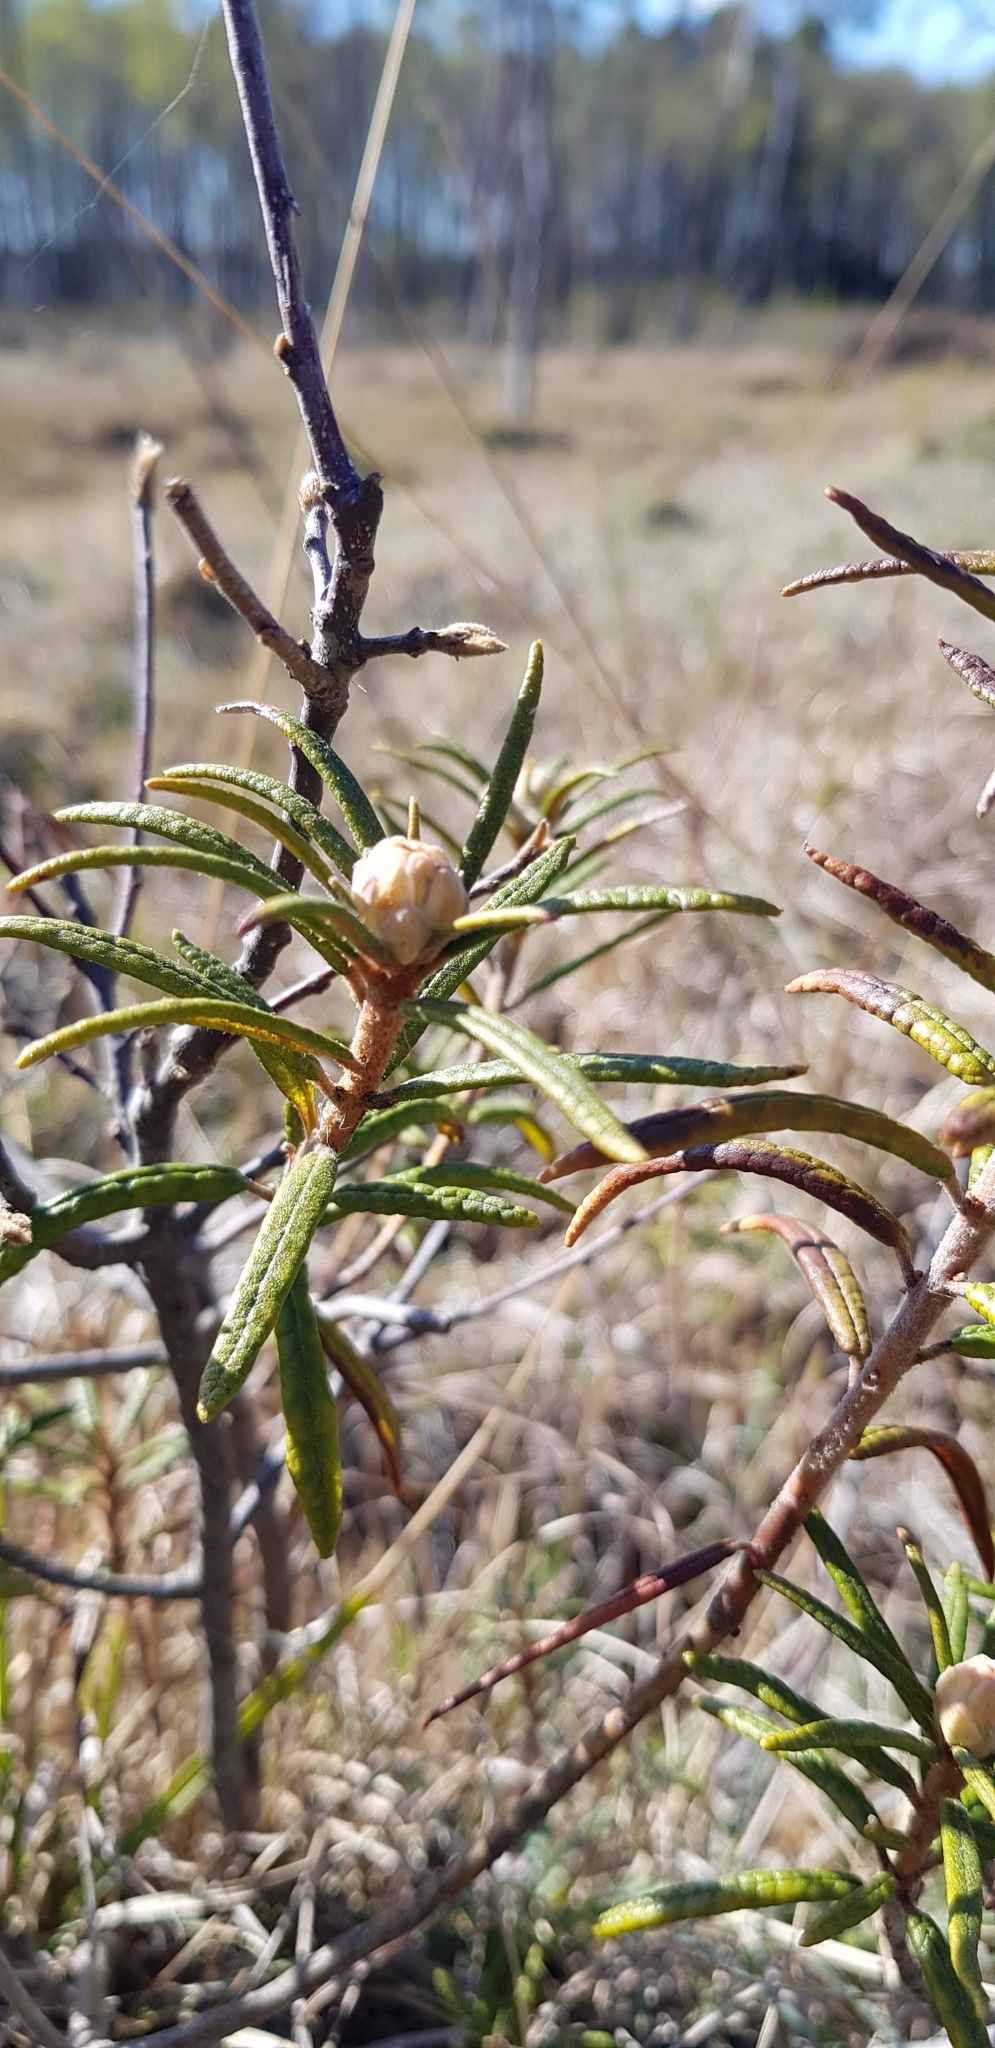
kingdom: Plantae
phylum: Tracheophyta
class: Magnoliopsida
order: Ericales
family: Ericaceae
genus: Rhododendron
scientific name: Rhododendron tomentosum
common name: Marsh labrador tea
